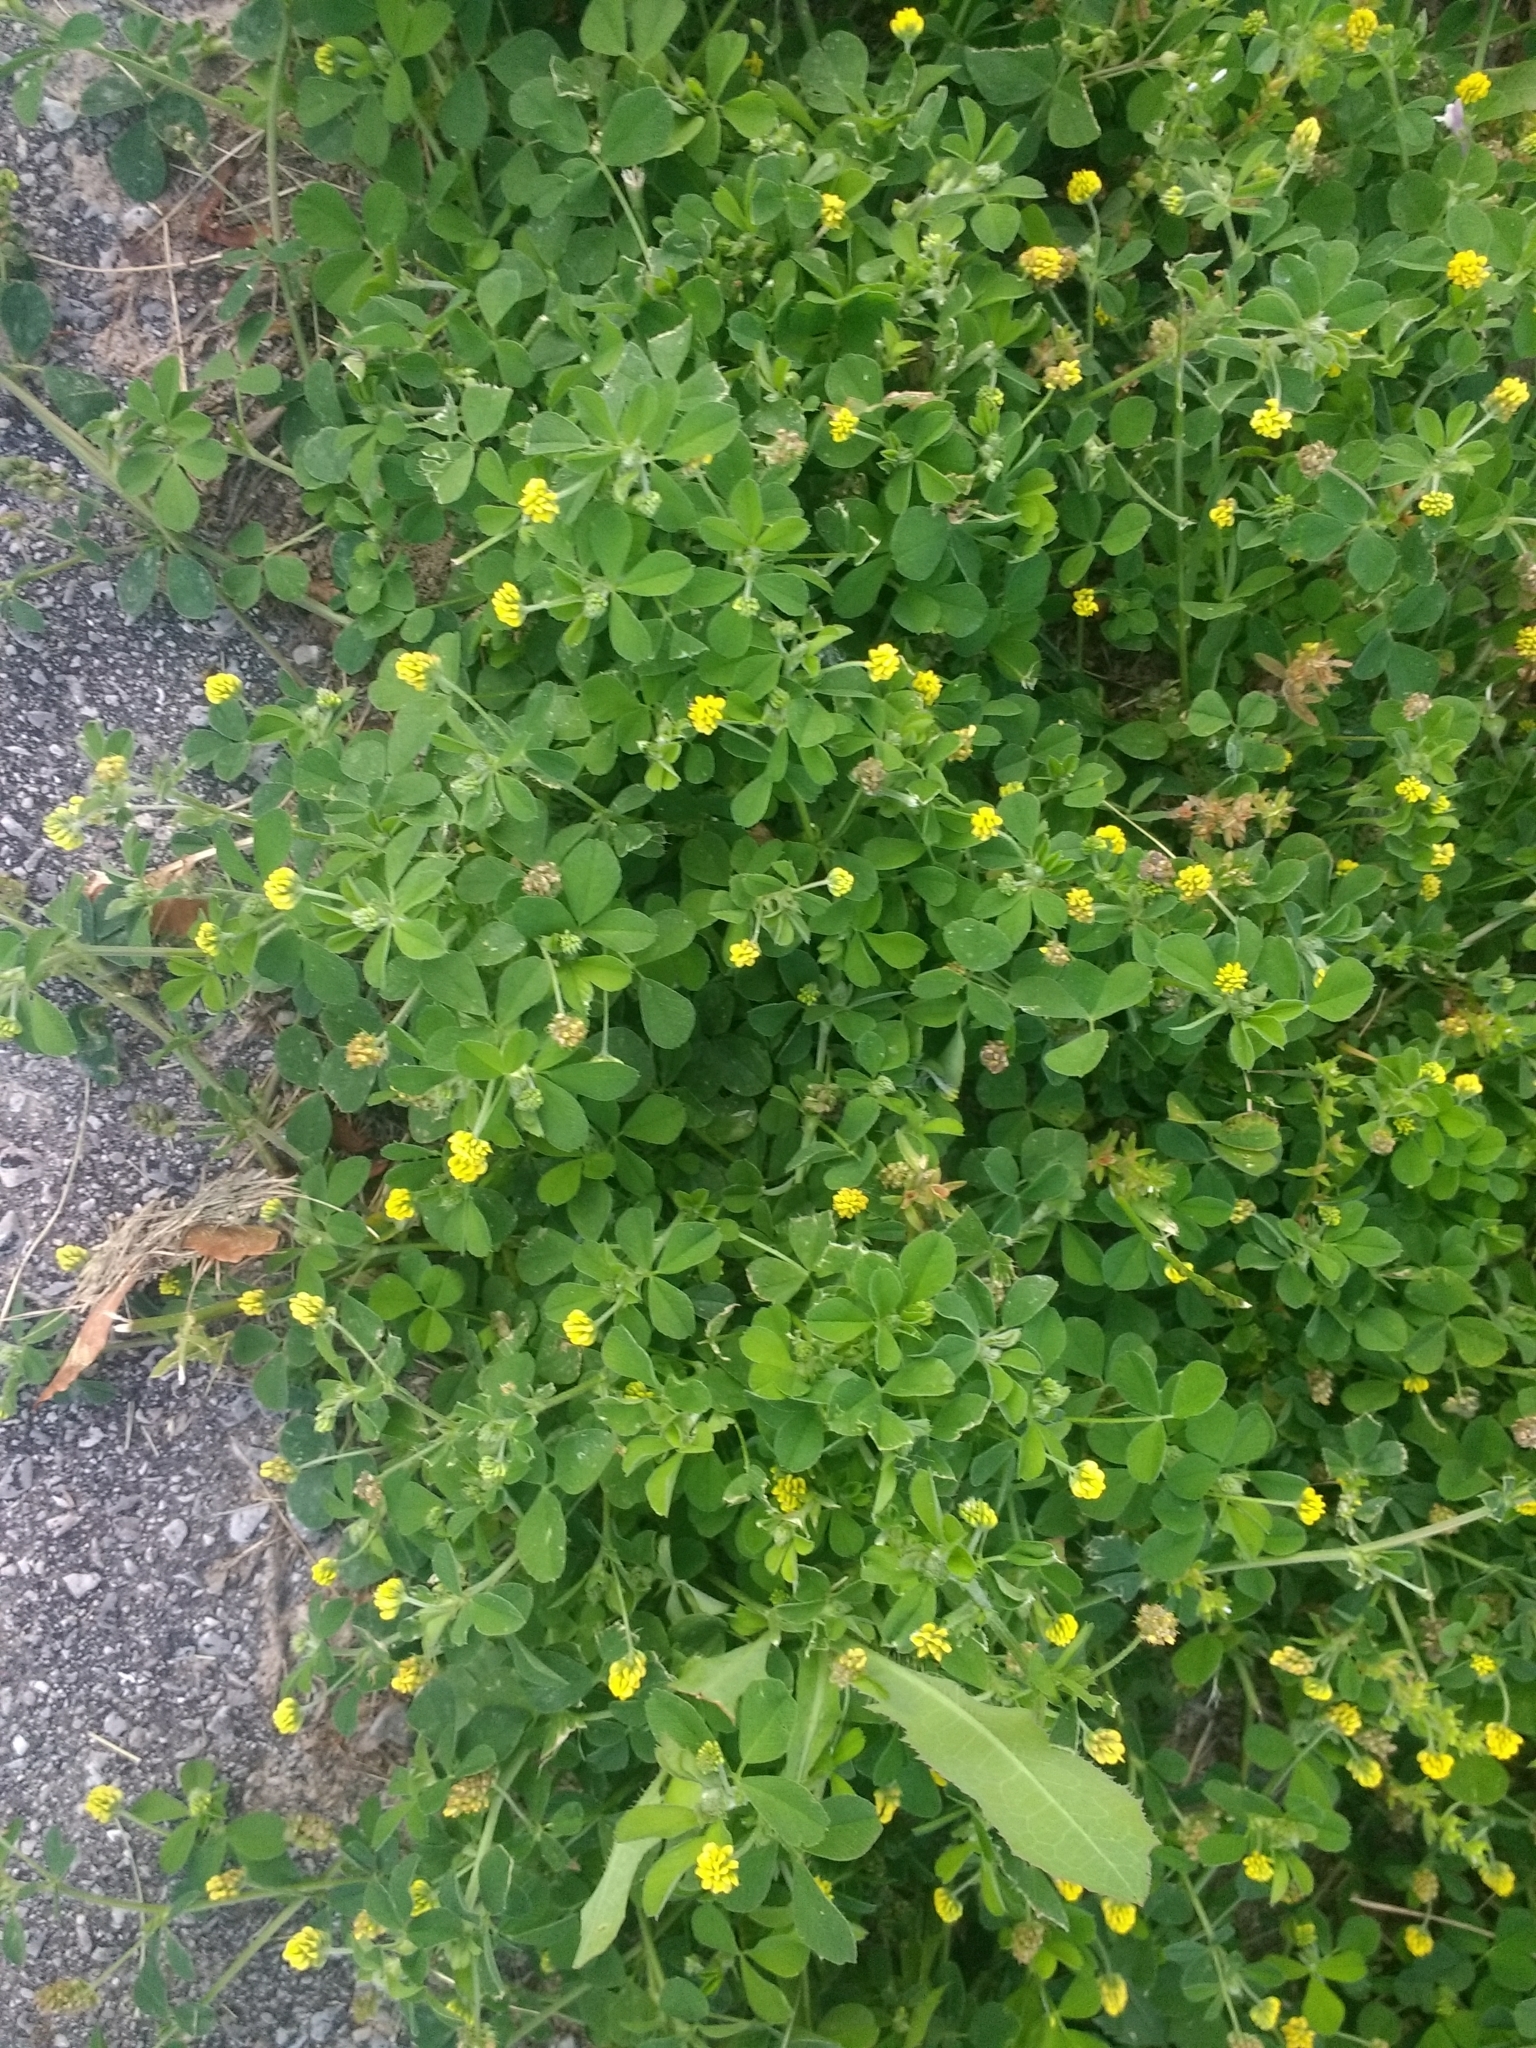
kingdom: Plantae
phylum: Tracheophyta
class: Magnoliopsida
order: Fabales
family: Fabaceae
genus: Medicago
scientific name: Medicago lupulina
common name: Black medick
